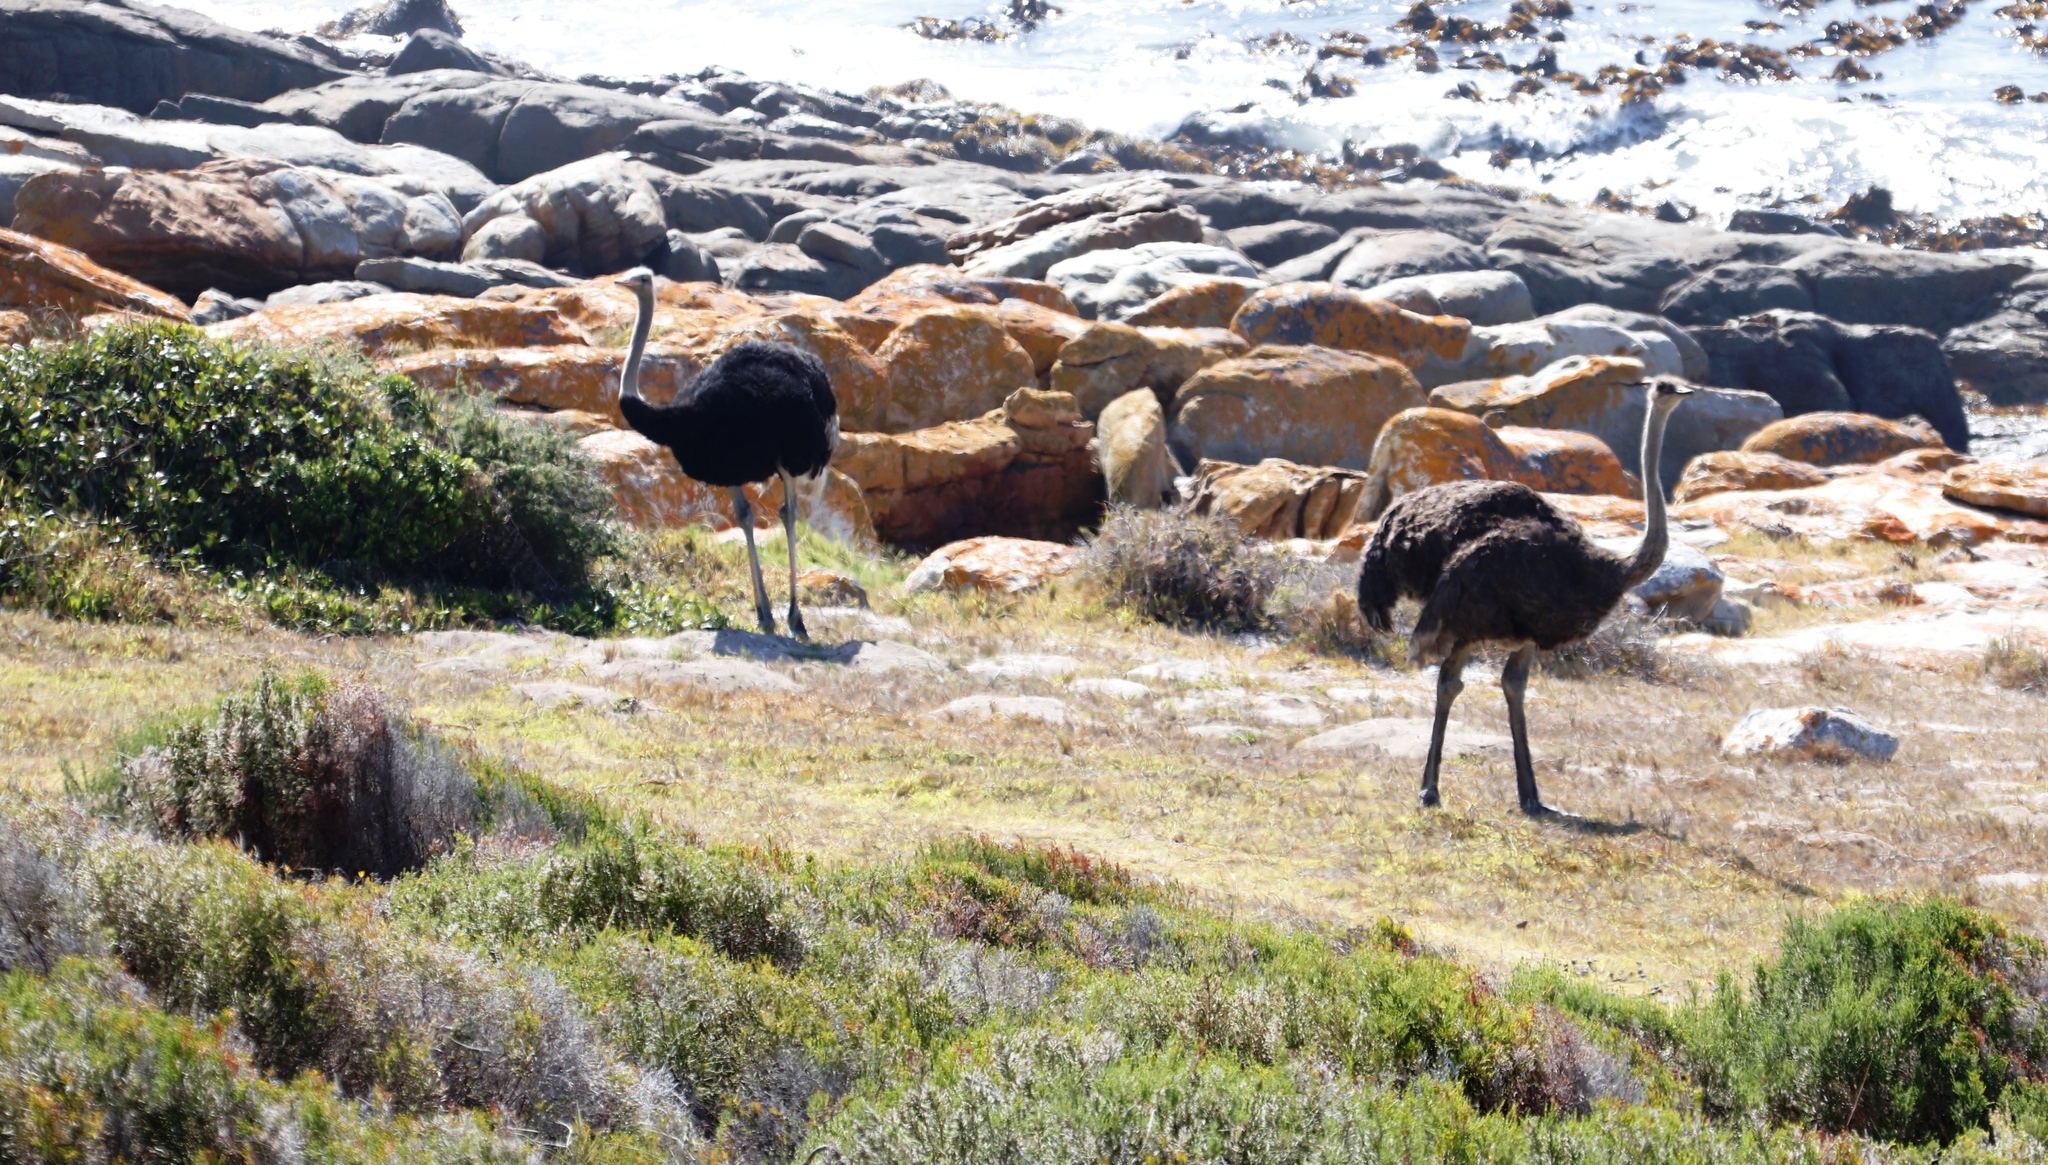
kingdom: Animalia
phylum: Chordata
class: Aves
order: Struthioniformes
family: Struthionidae
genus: Struthio
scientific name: Struthio camelus
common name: Common ostrich
